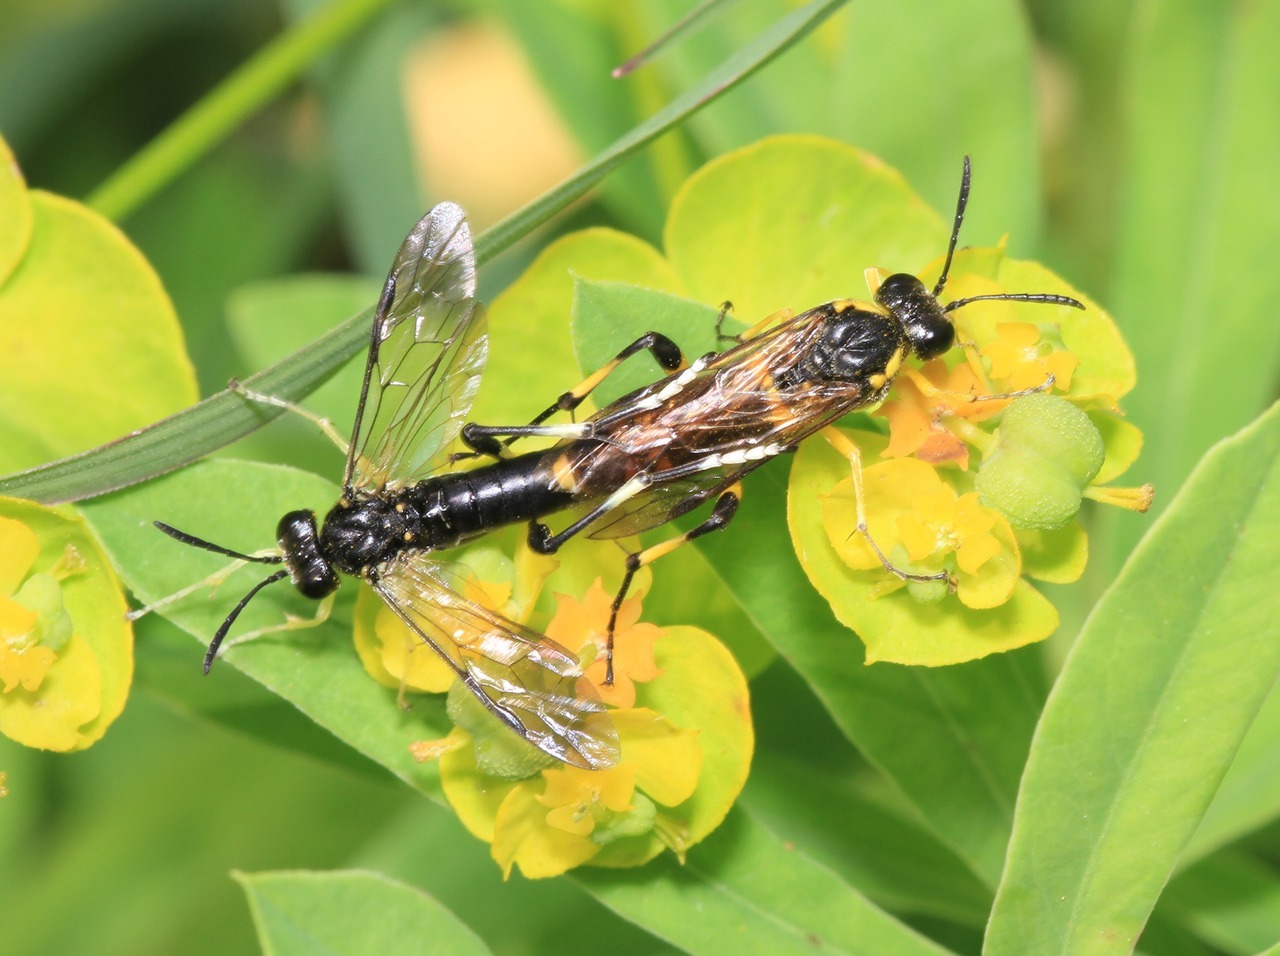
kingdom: Animalia
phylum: Arthropoda
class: Insecta
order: Hymenoptera
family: Tenthredinidae
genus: Macrophya
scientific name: Macrophya montana
